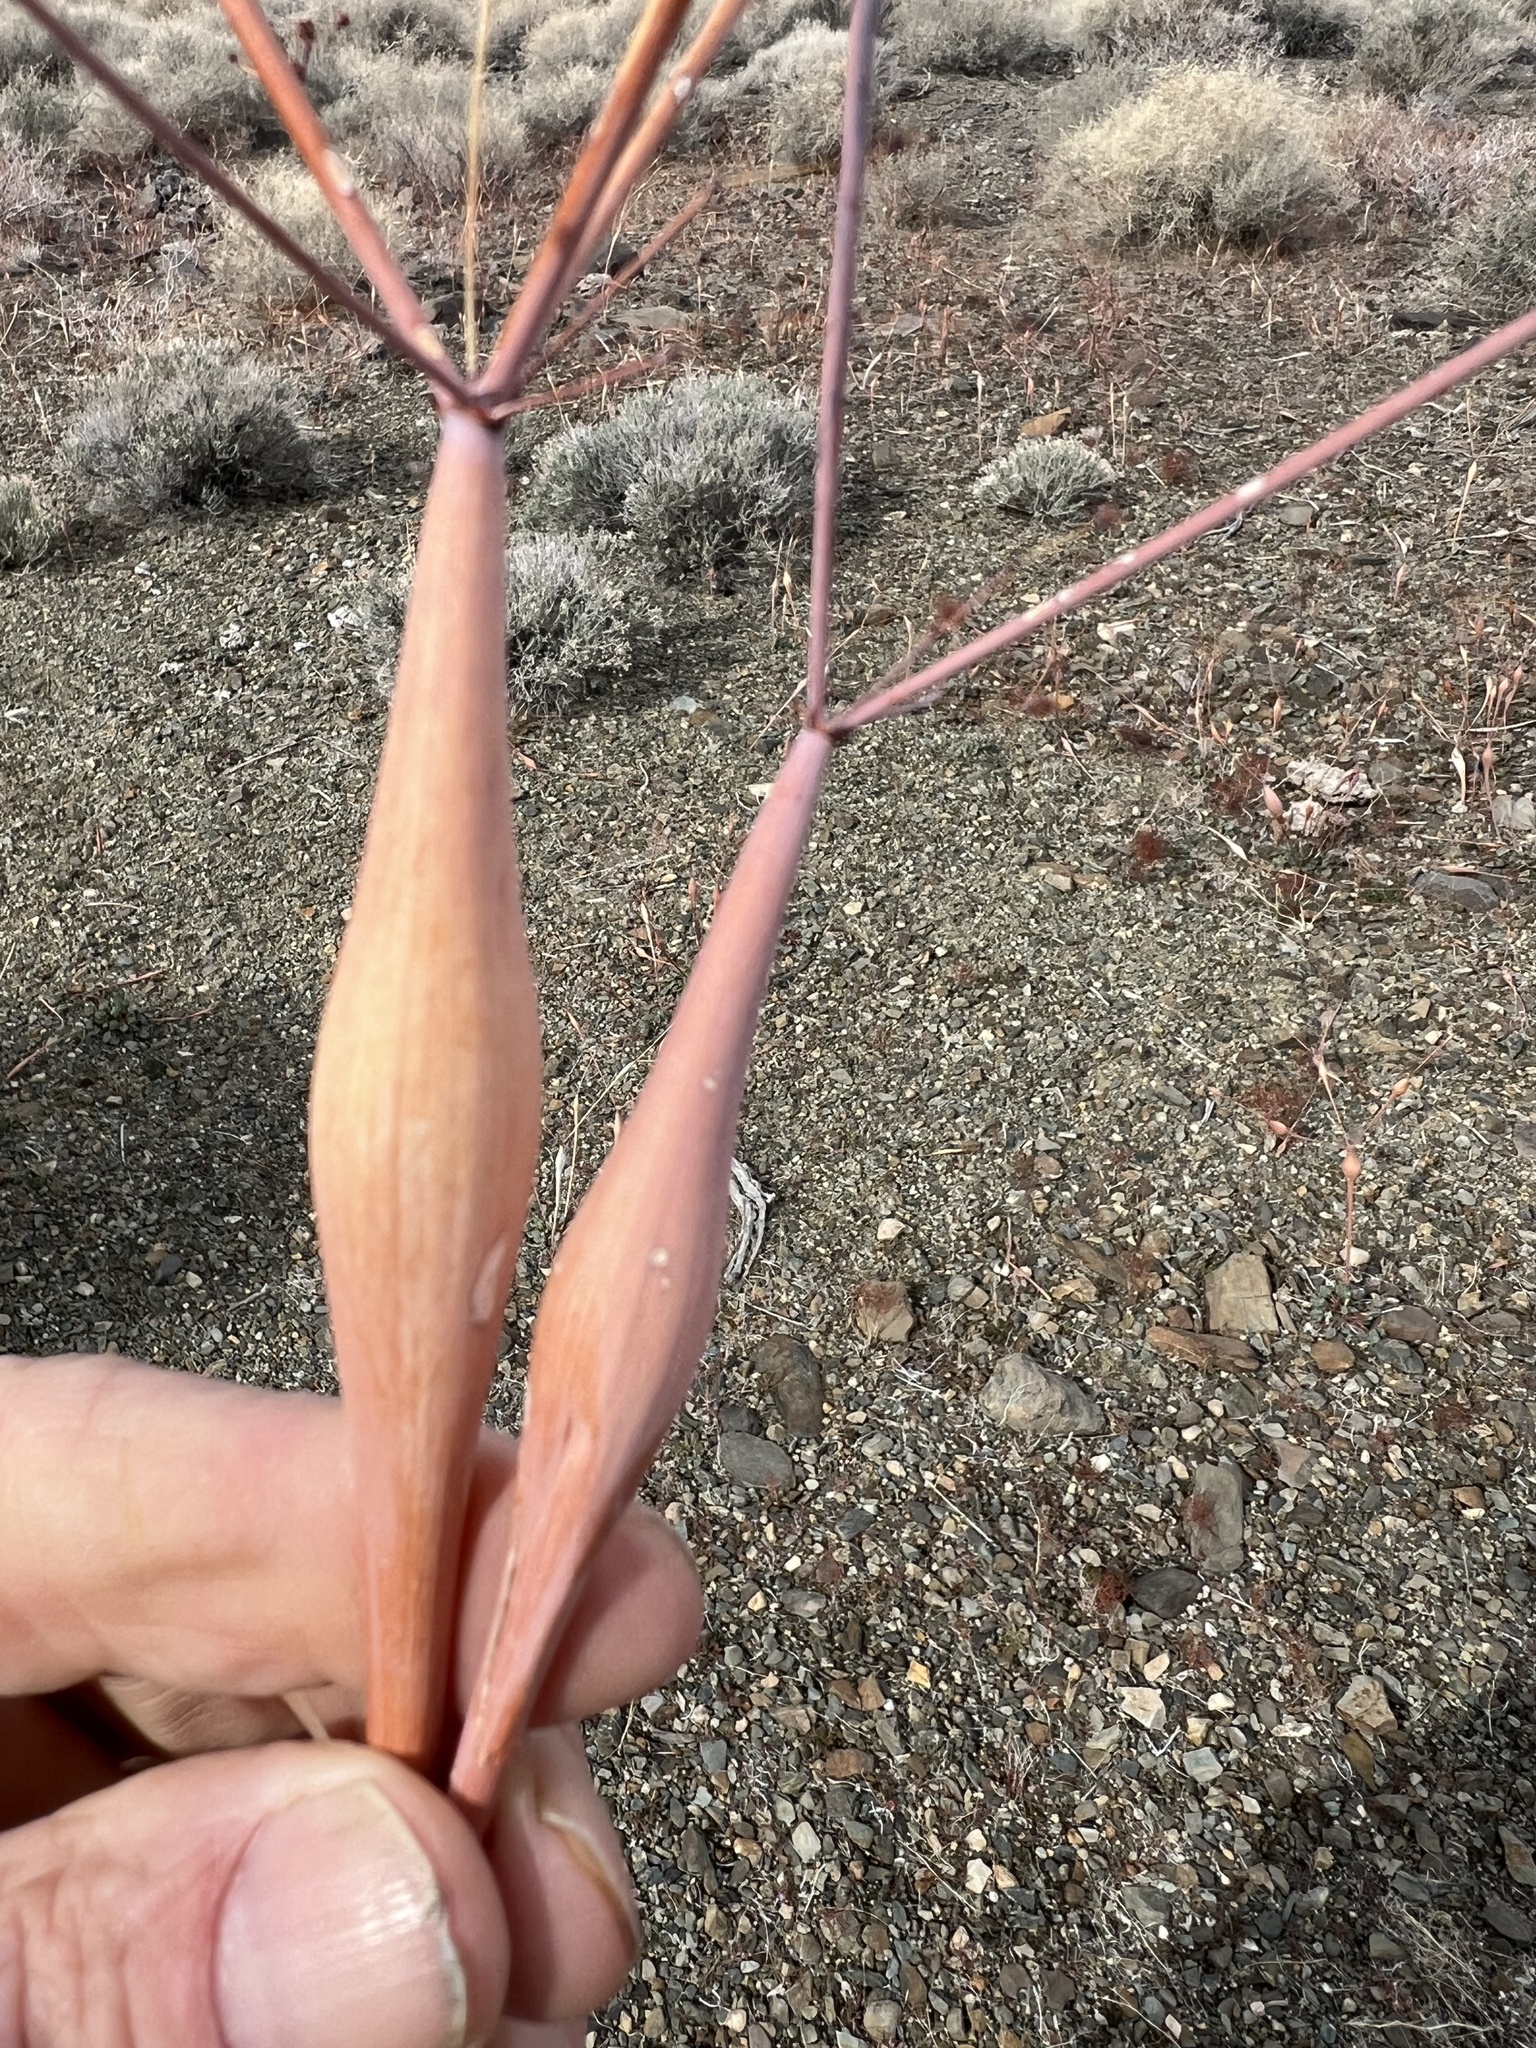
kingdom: Plantae
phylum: Tracheophyta
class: Magnoliopsida
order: Caryophyllales
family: Polygonaceae
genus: Eriogonum
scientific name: Eriogonum inflatum
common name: Desert trumpet
